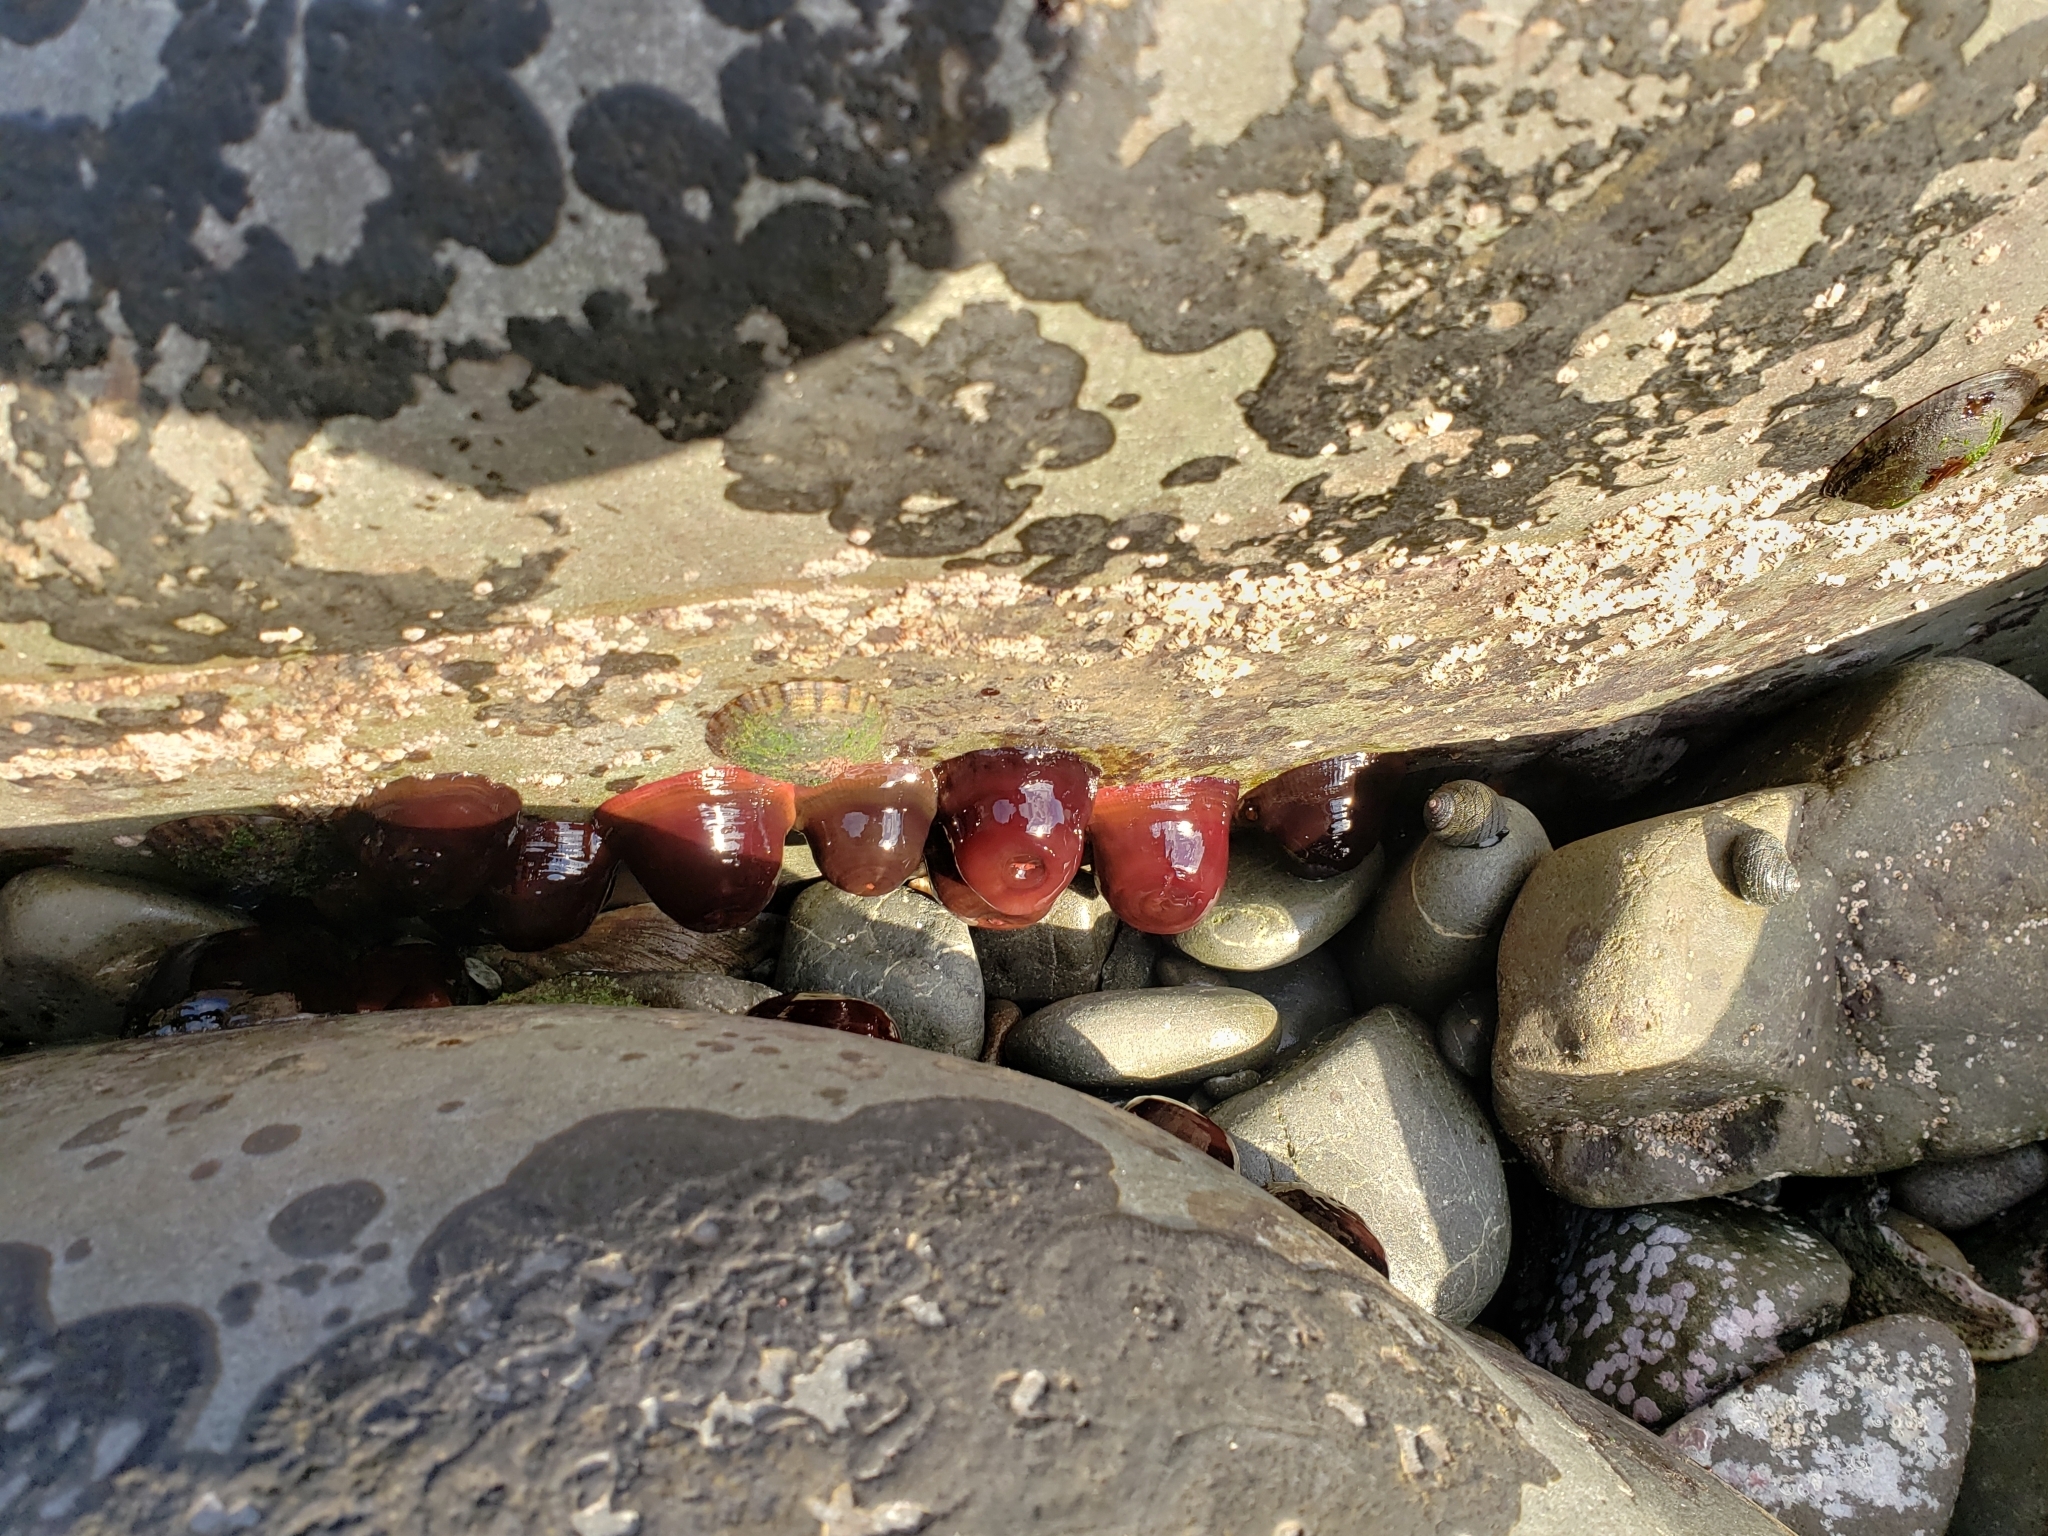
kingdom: Animalia
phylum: Cnidaria
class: Anthozoa
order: Actiniaria
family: Actiniidae
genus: Actinia
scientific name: Actinia tenebrosa
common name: Waratah anemone
